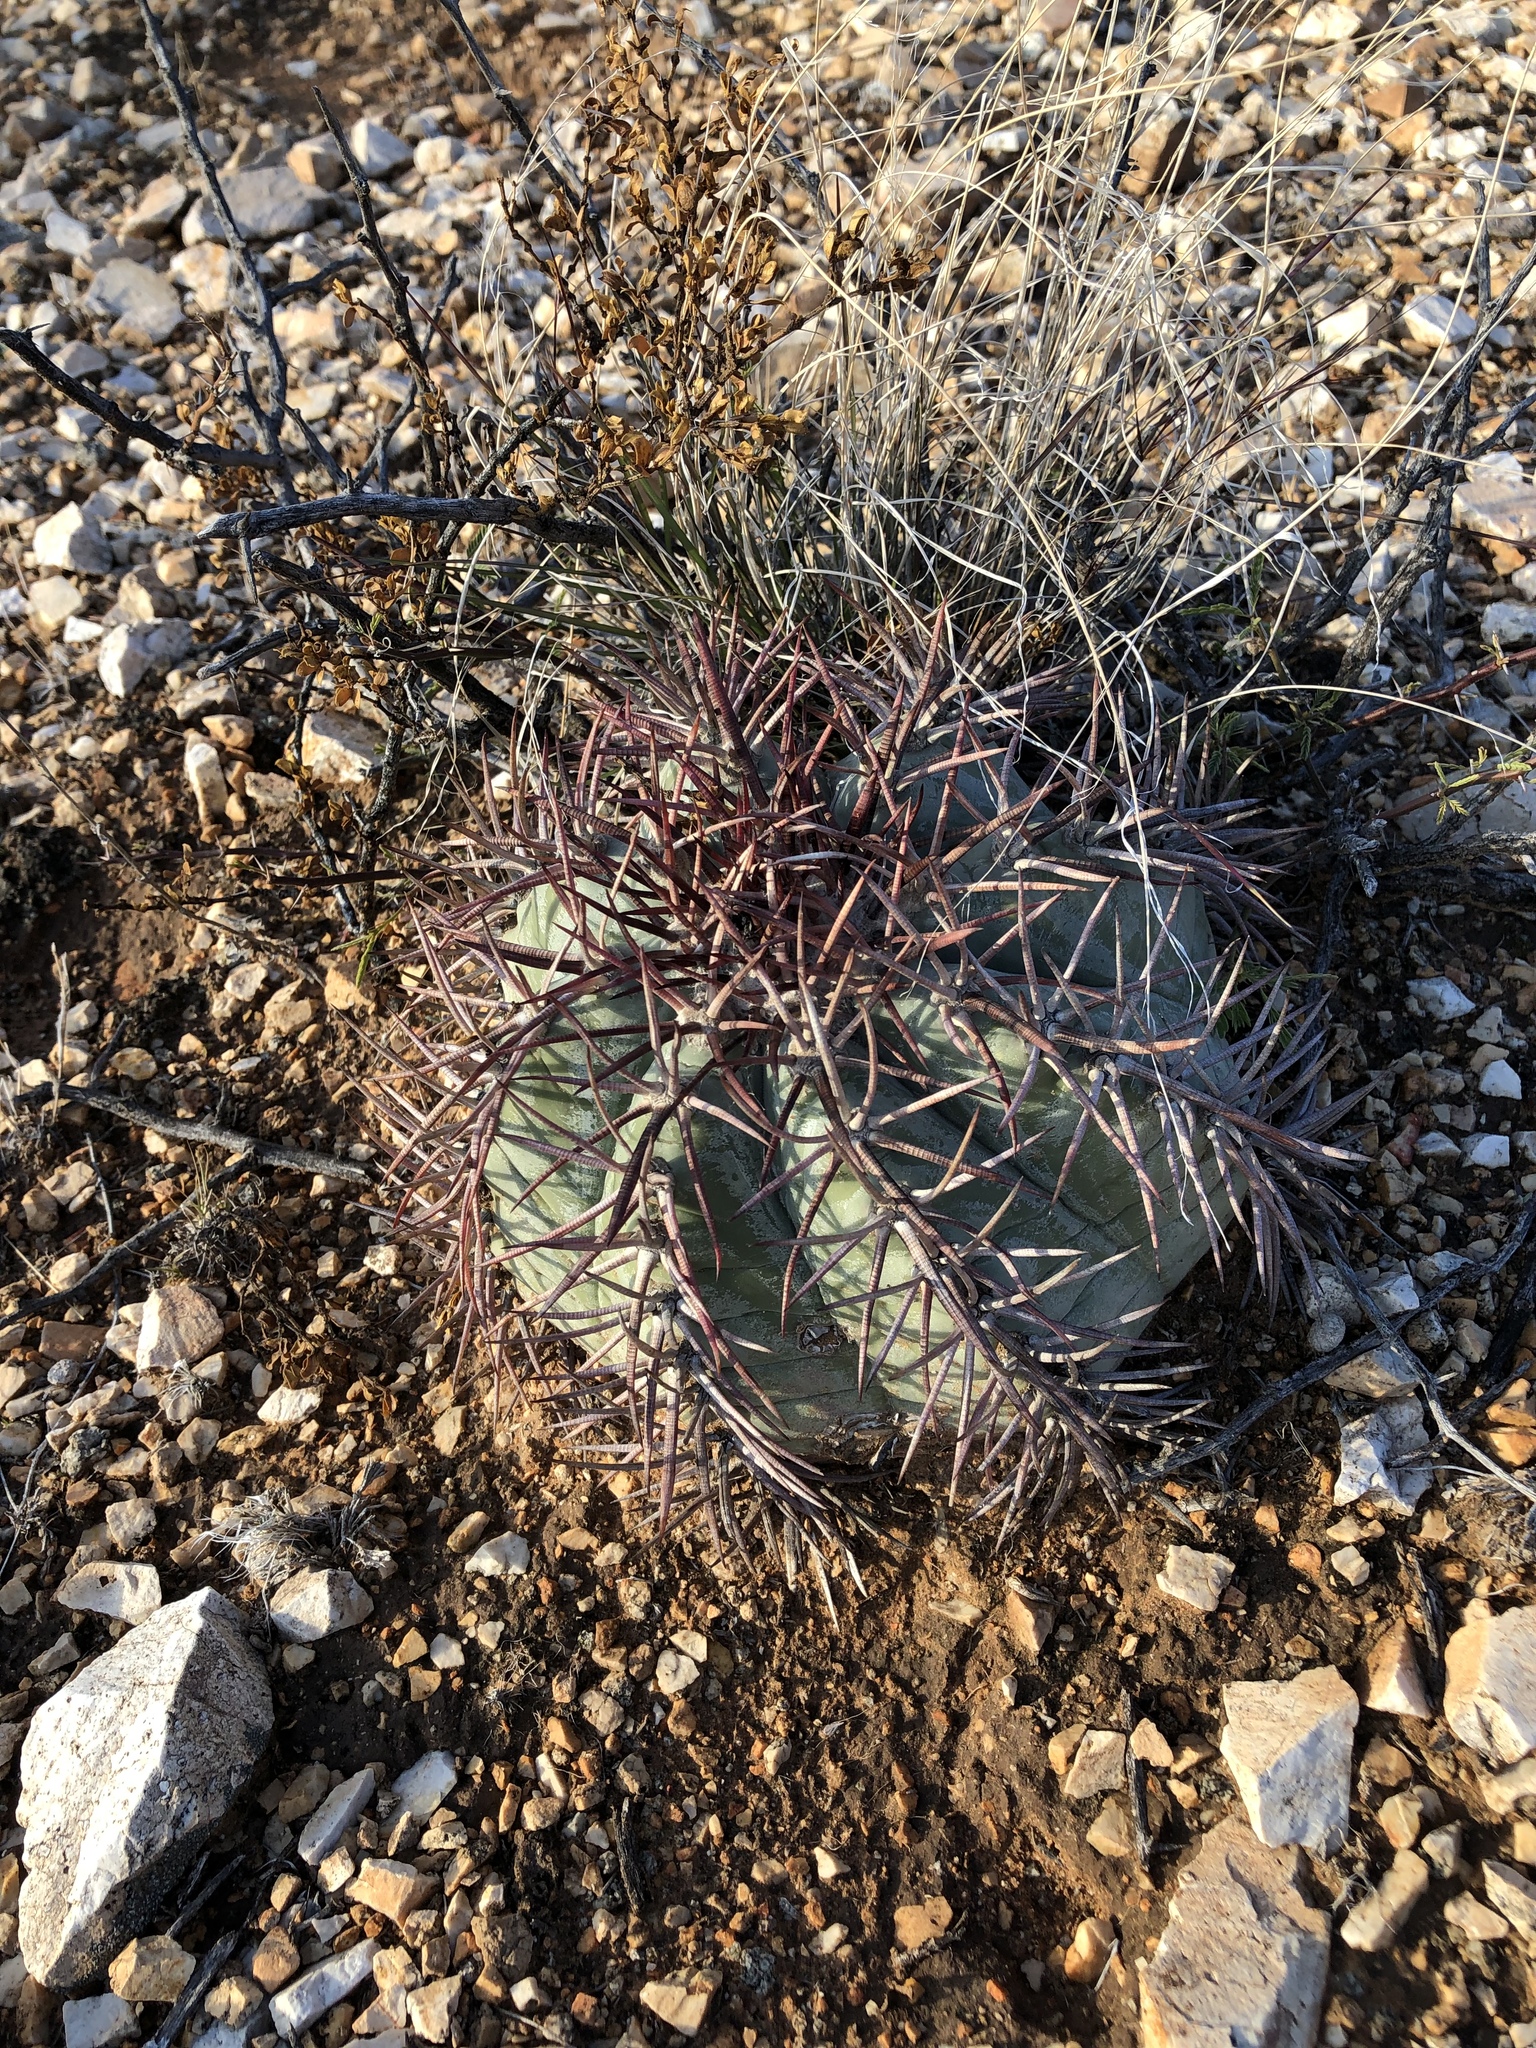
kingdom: Plantae
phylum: Tracheophyta
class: Magnoliopsida
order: Caryophyllales
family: Cactaceae
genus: Echinocactus
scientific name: Echinocactus horizonthalonius
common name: Devilshead
